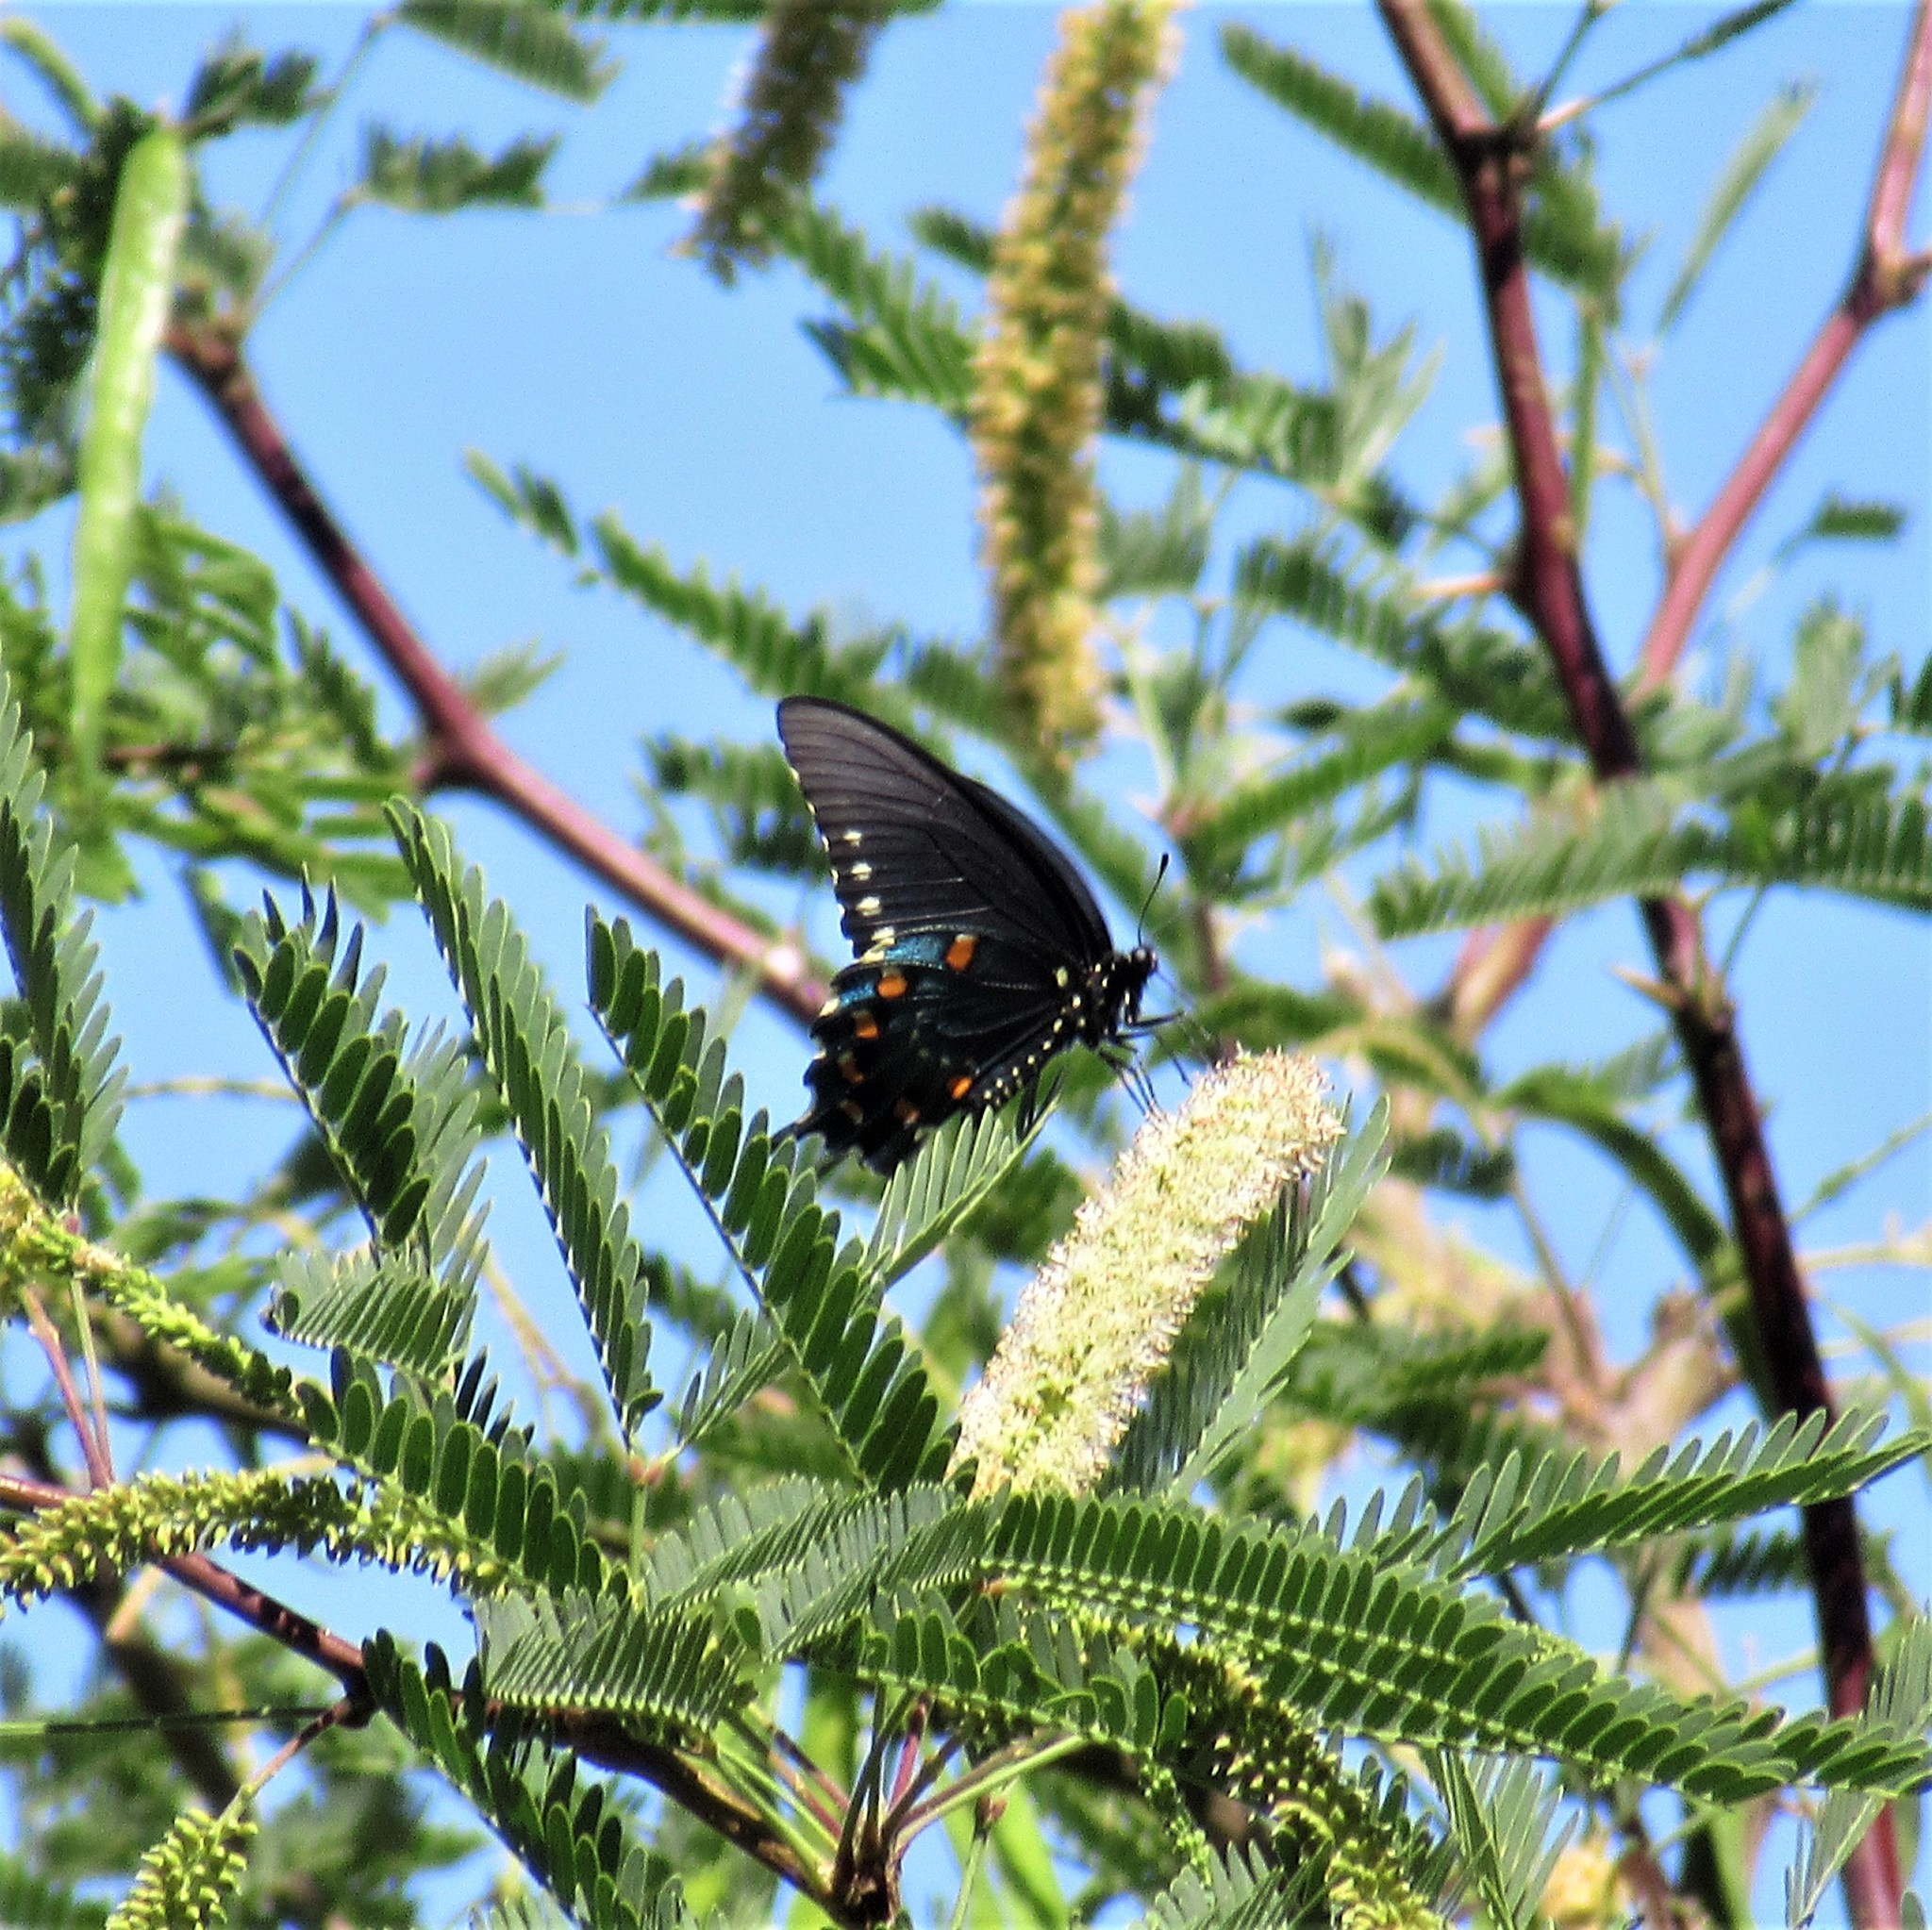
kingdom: Animalia
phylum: Arthropoda
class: Insecta
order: Lepidoptera
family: Papilionidae
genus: Battus
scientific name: Battus philenor
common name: Pipevine swallowtail
